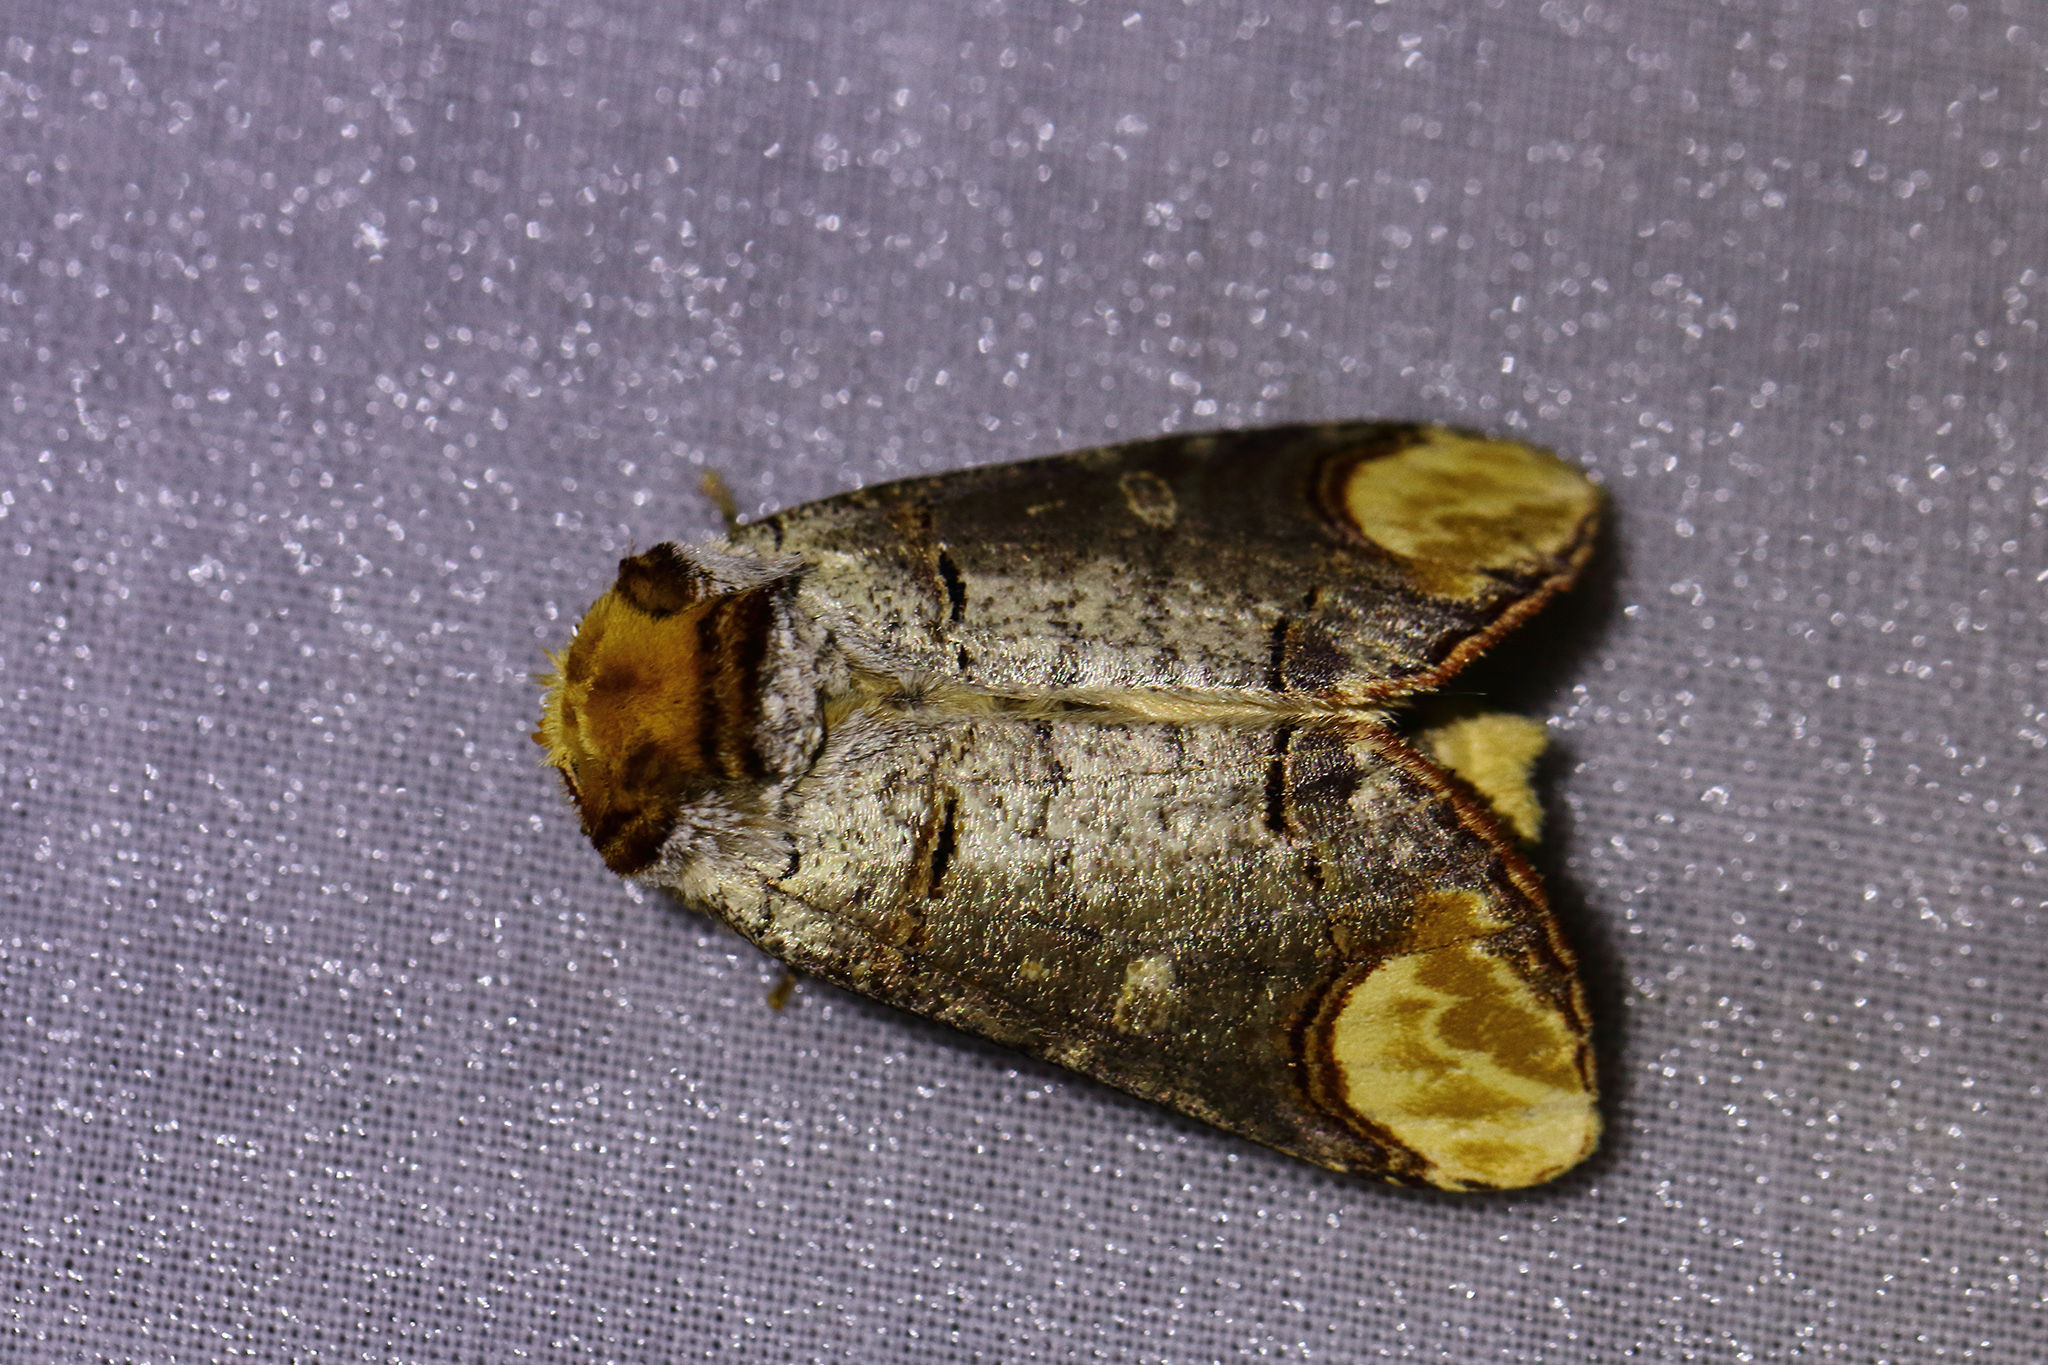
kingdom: Animalia
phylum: Arthropoda
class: Insecta
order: Lepidoptera
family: Notodontidae
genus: Phalera
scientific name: Phalera bucephala
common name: Buff-tip
